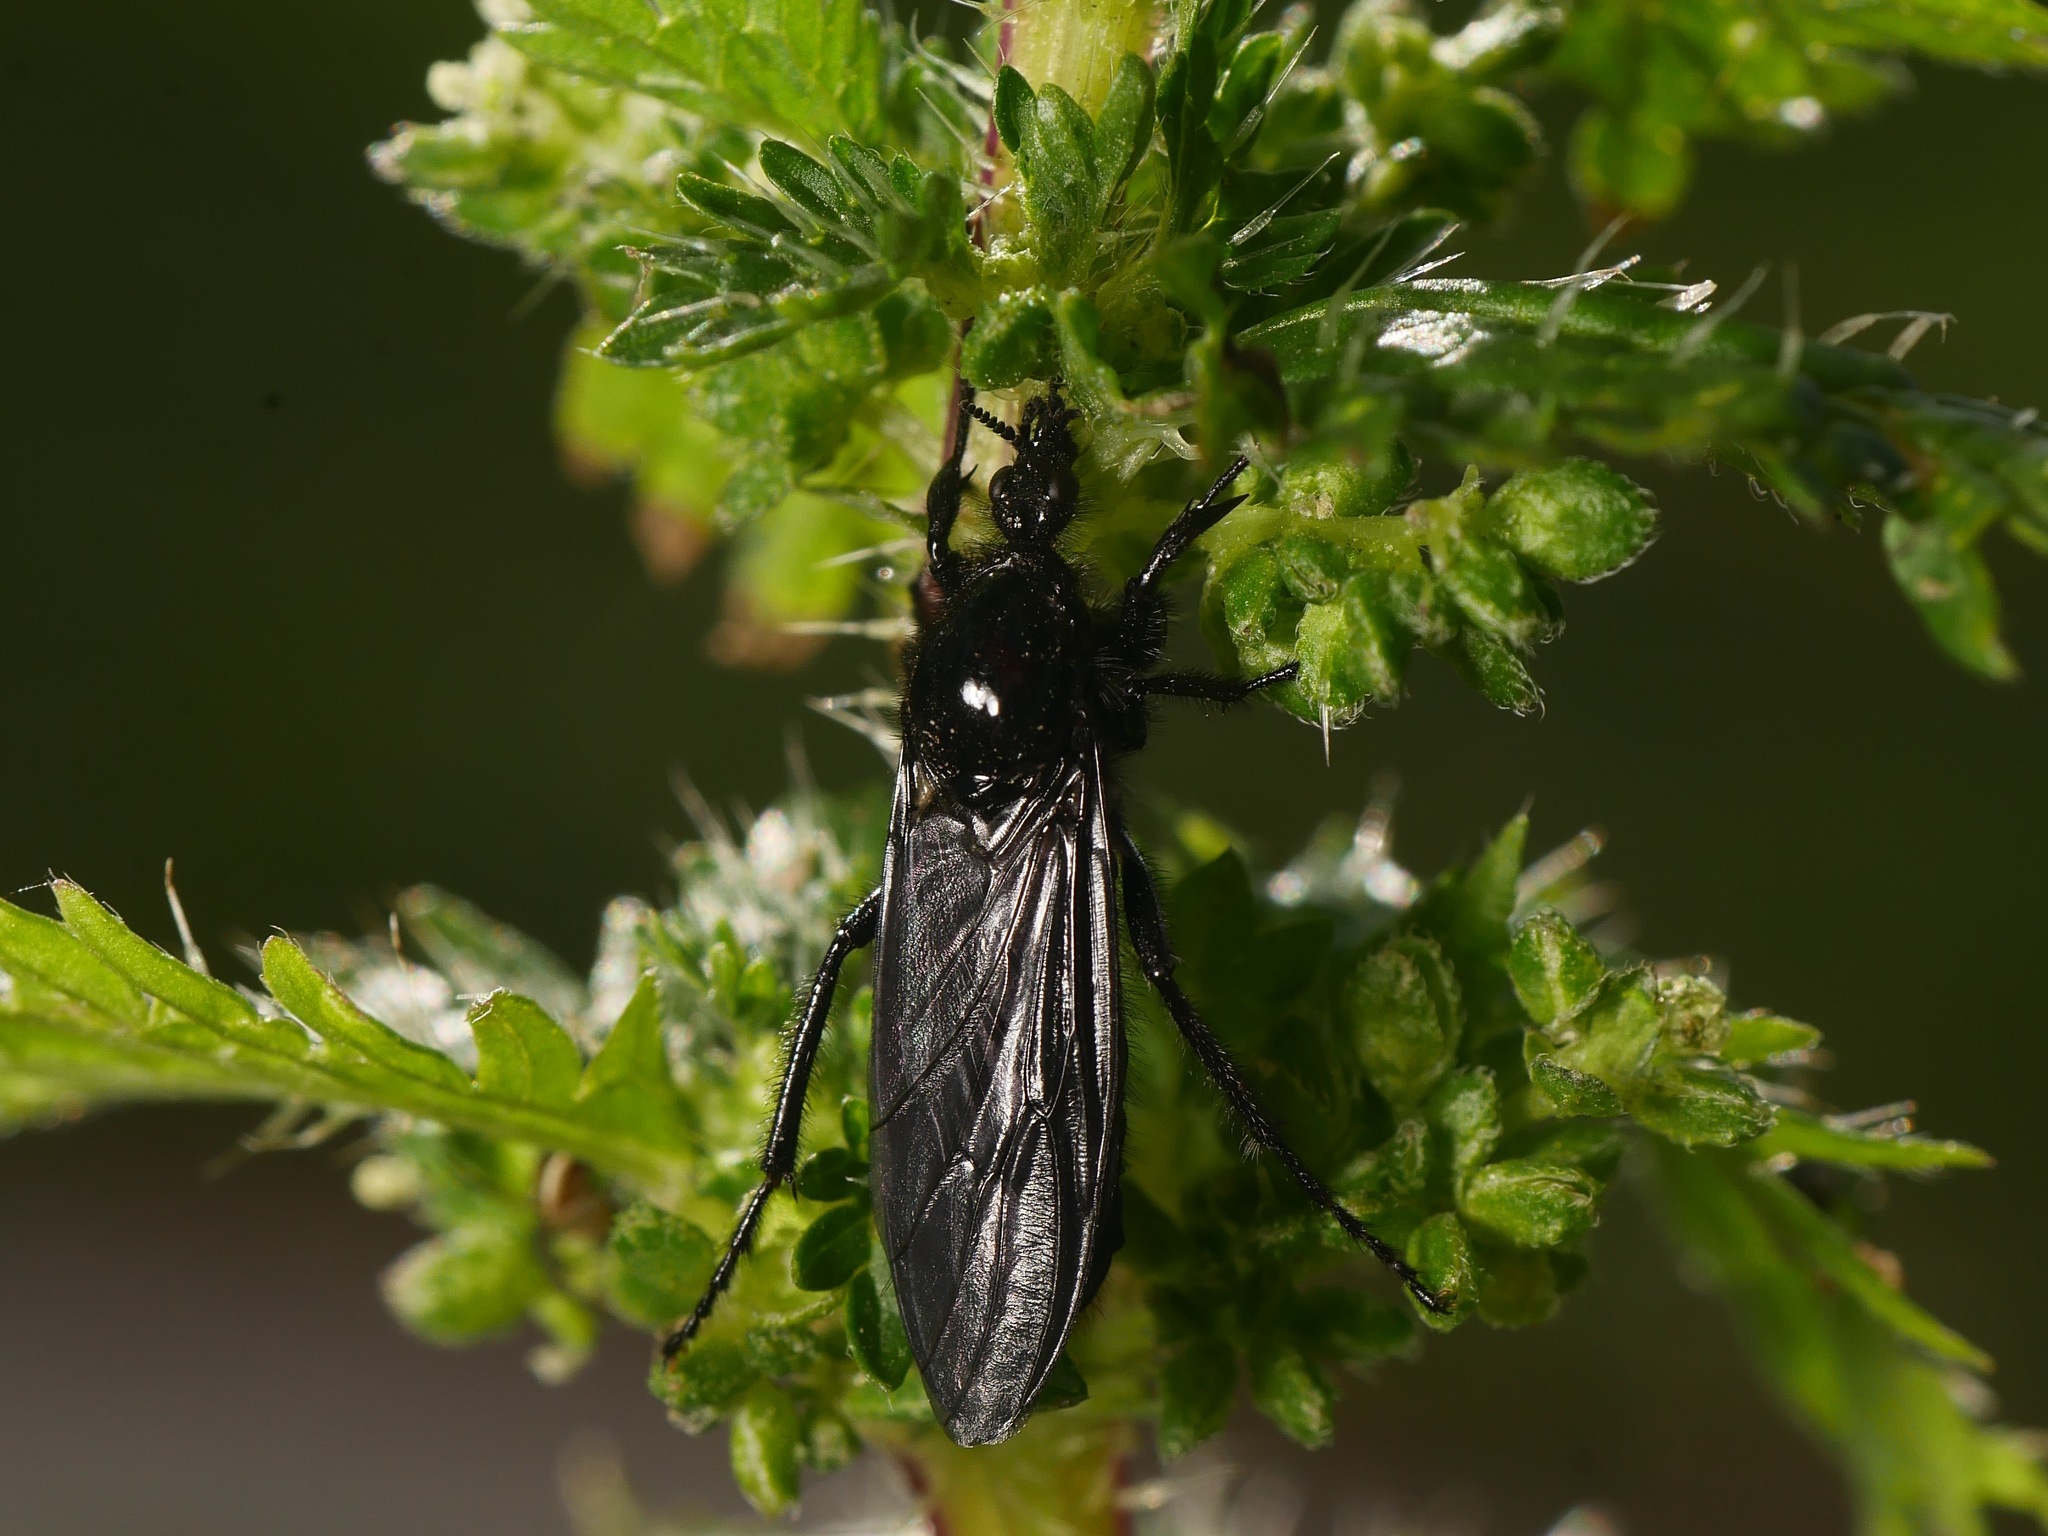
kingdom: Animalia
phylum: Arthropoda
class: Insecta
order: Diptera
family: Bibionidae
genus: Bibio
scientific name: Bibio marci
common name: St marks fly
